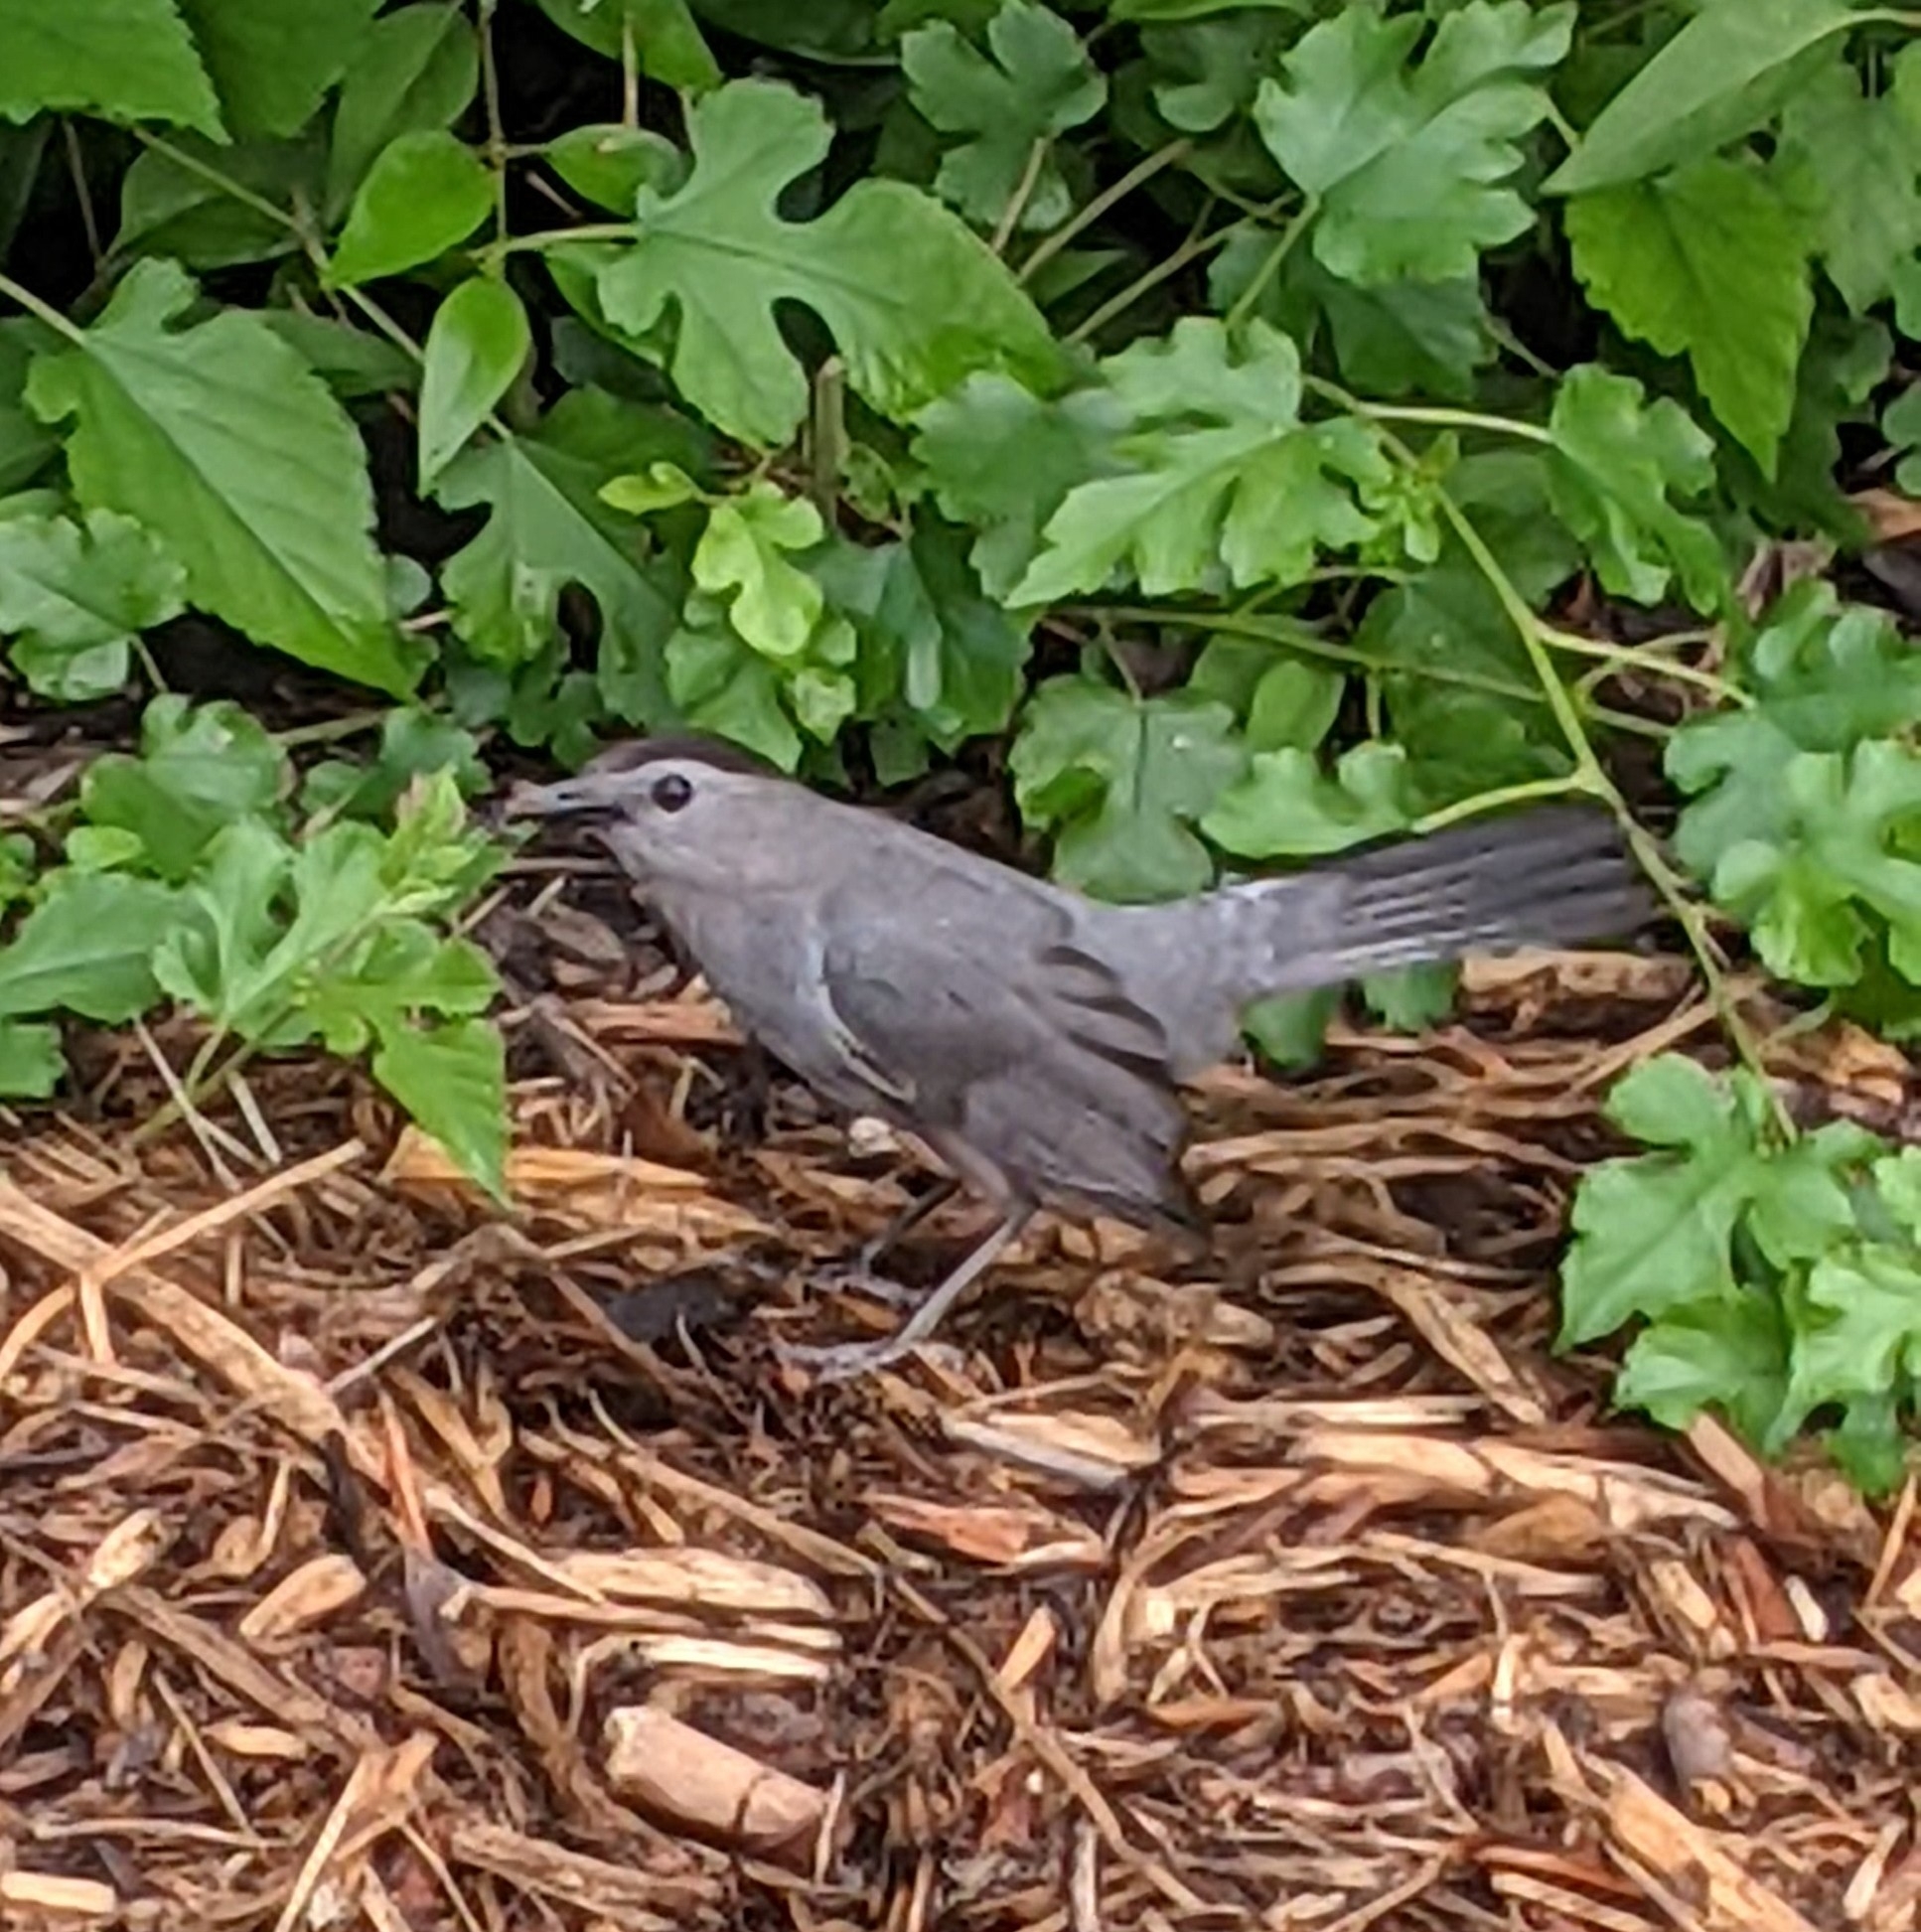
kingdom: Animalia
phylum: Chordata
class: Aves
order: Passeriformes
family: Mimidae
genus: Dumetella
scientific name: Dumetella carolinensis
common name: Gray catbird
